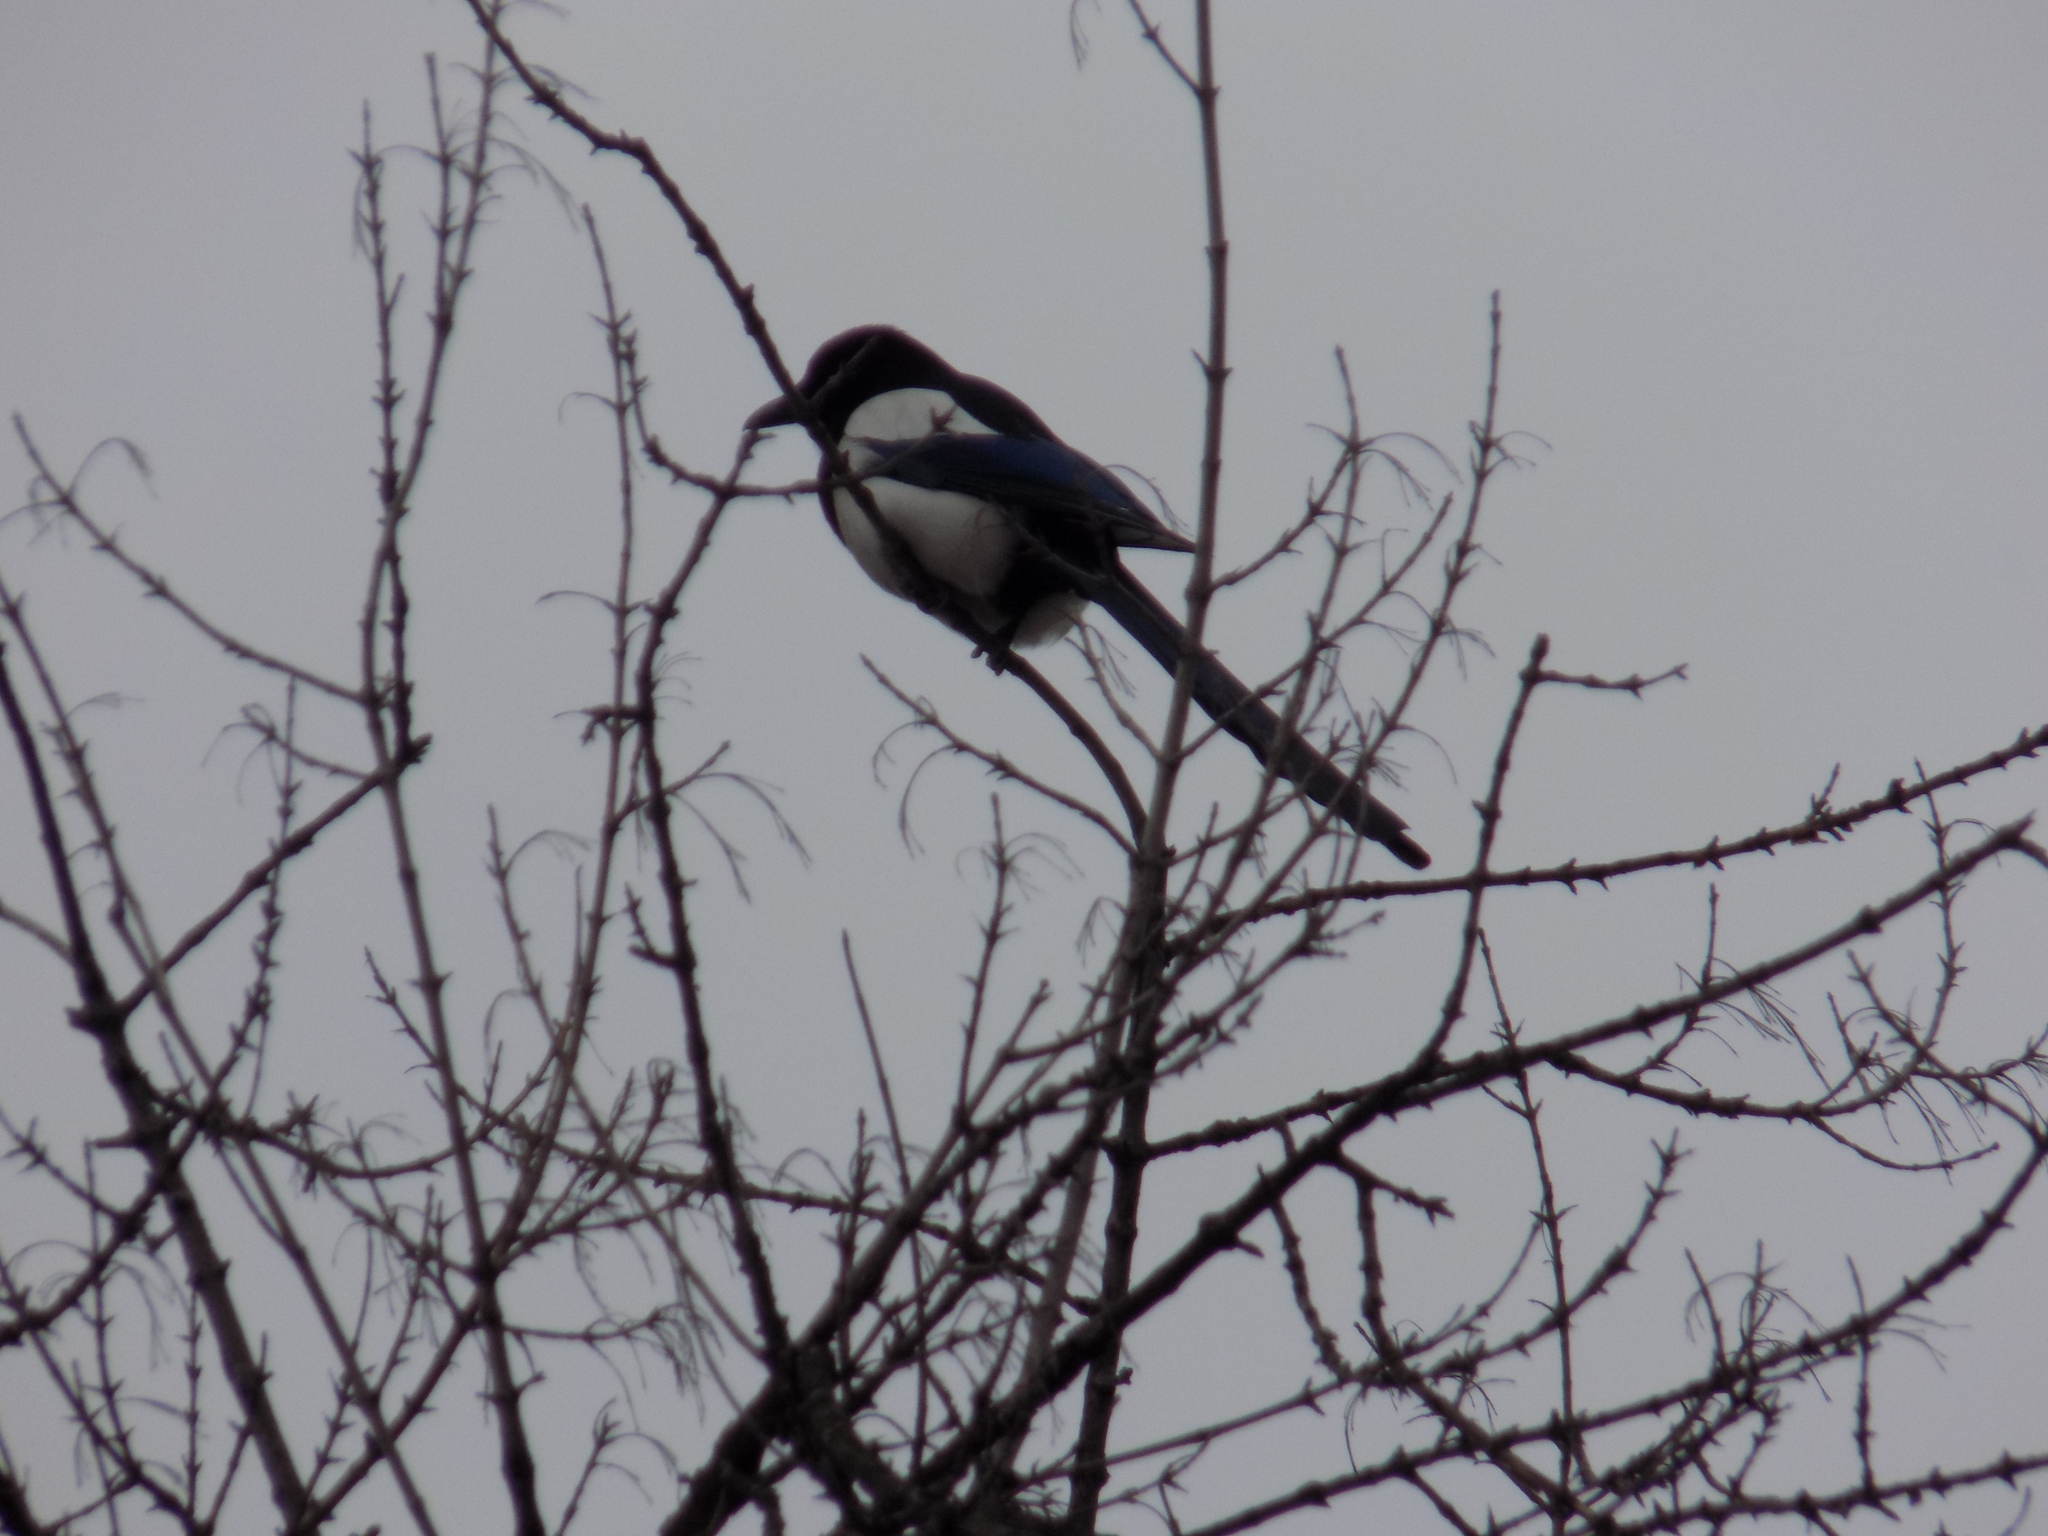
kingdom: Animalia
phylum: Chordata
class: Aves
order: Passeriformes
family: Corvidae
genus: Pica
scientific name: Pica pica
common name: Eurasian magpie
